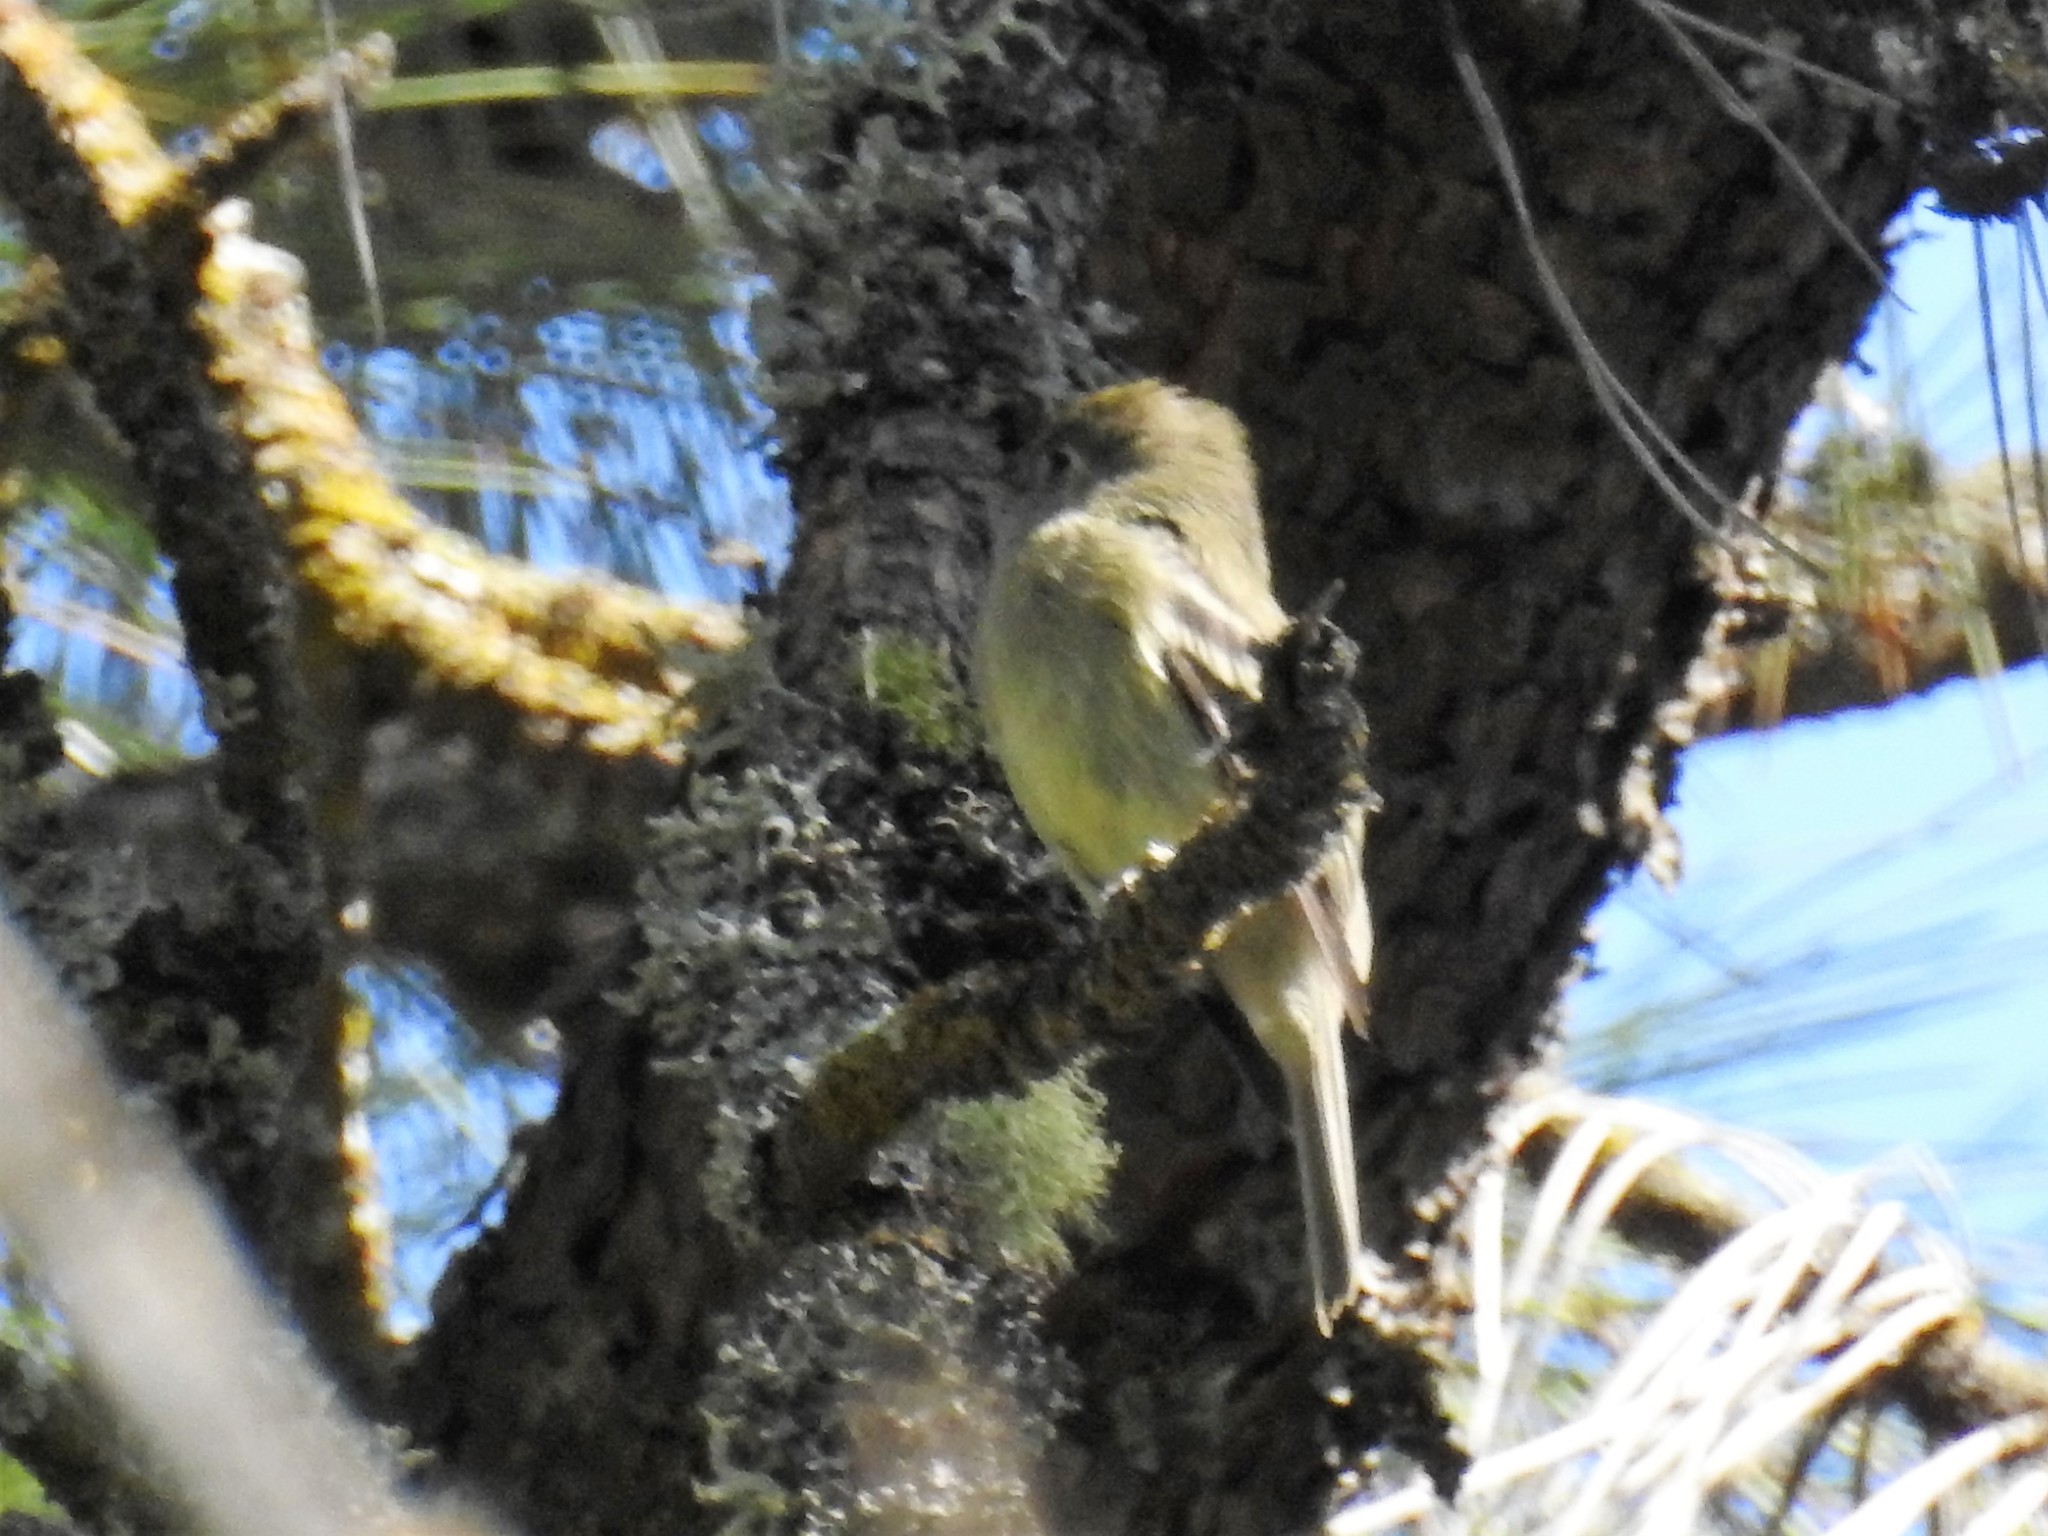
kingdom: Animalia
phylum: Chordata
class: Aves
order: Passeriformes
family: Tyrannidae
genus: Empidonax
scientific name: Empidonax
